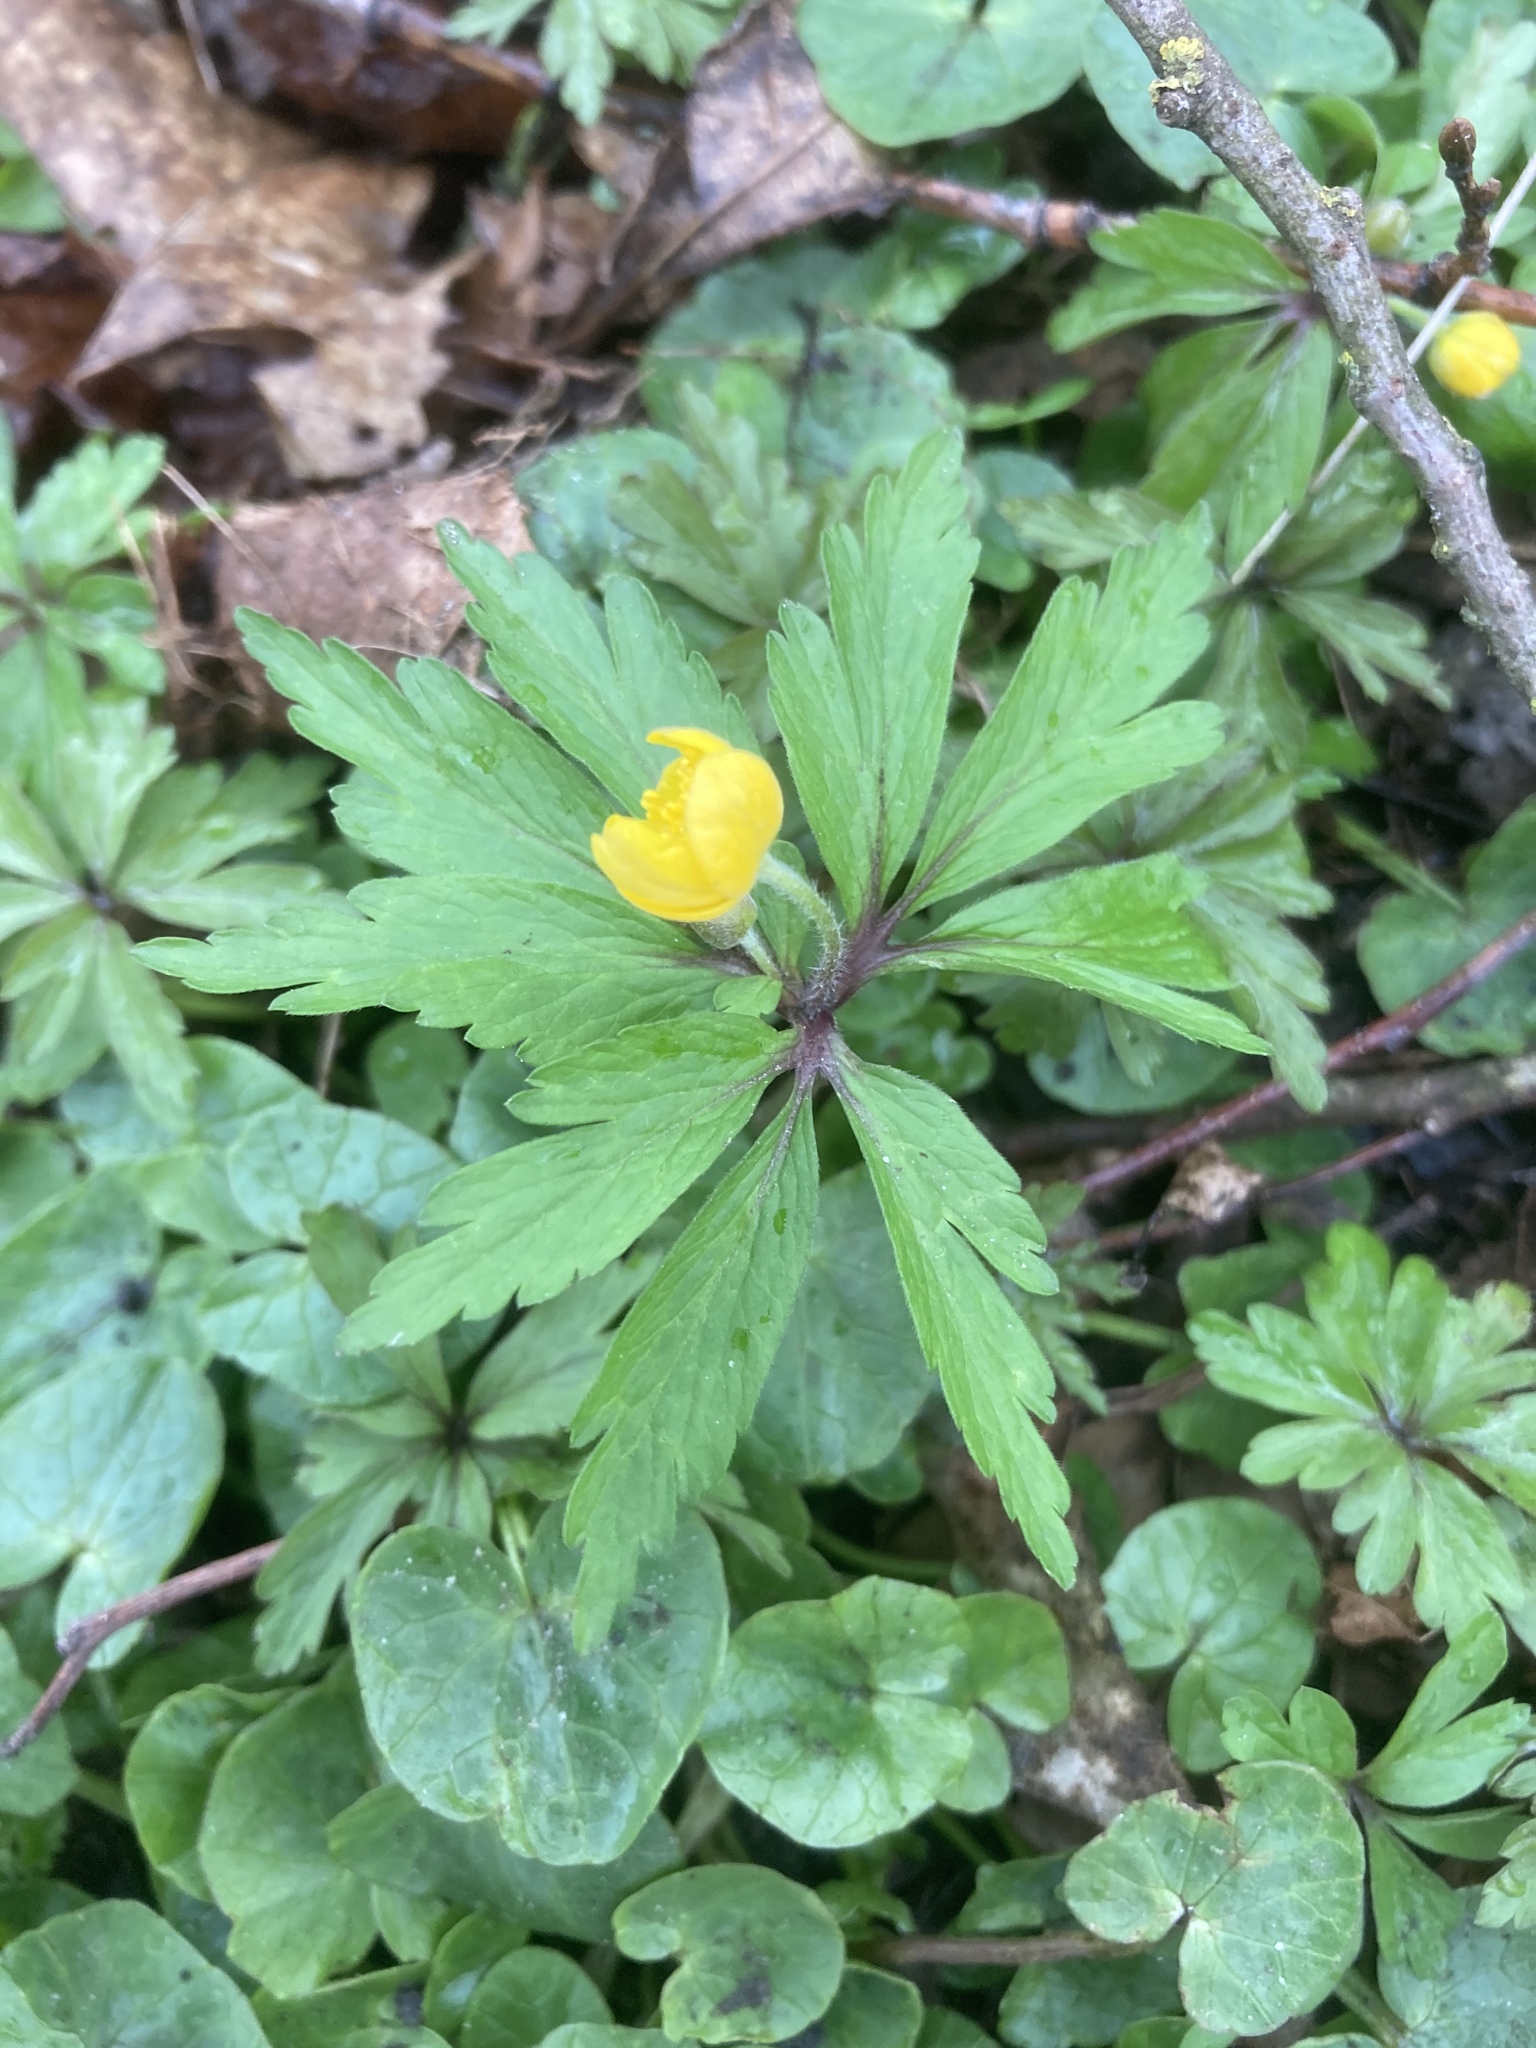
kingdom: Plantae
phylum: Tracheophyta
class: Magnoliopsida
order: Ranunculales
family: Ranunculaceae
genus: Anemone
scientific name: Anemone ranunculoides
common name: Yellow anemone
